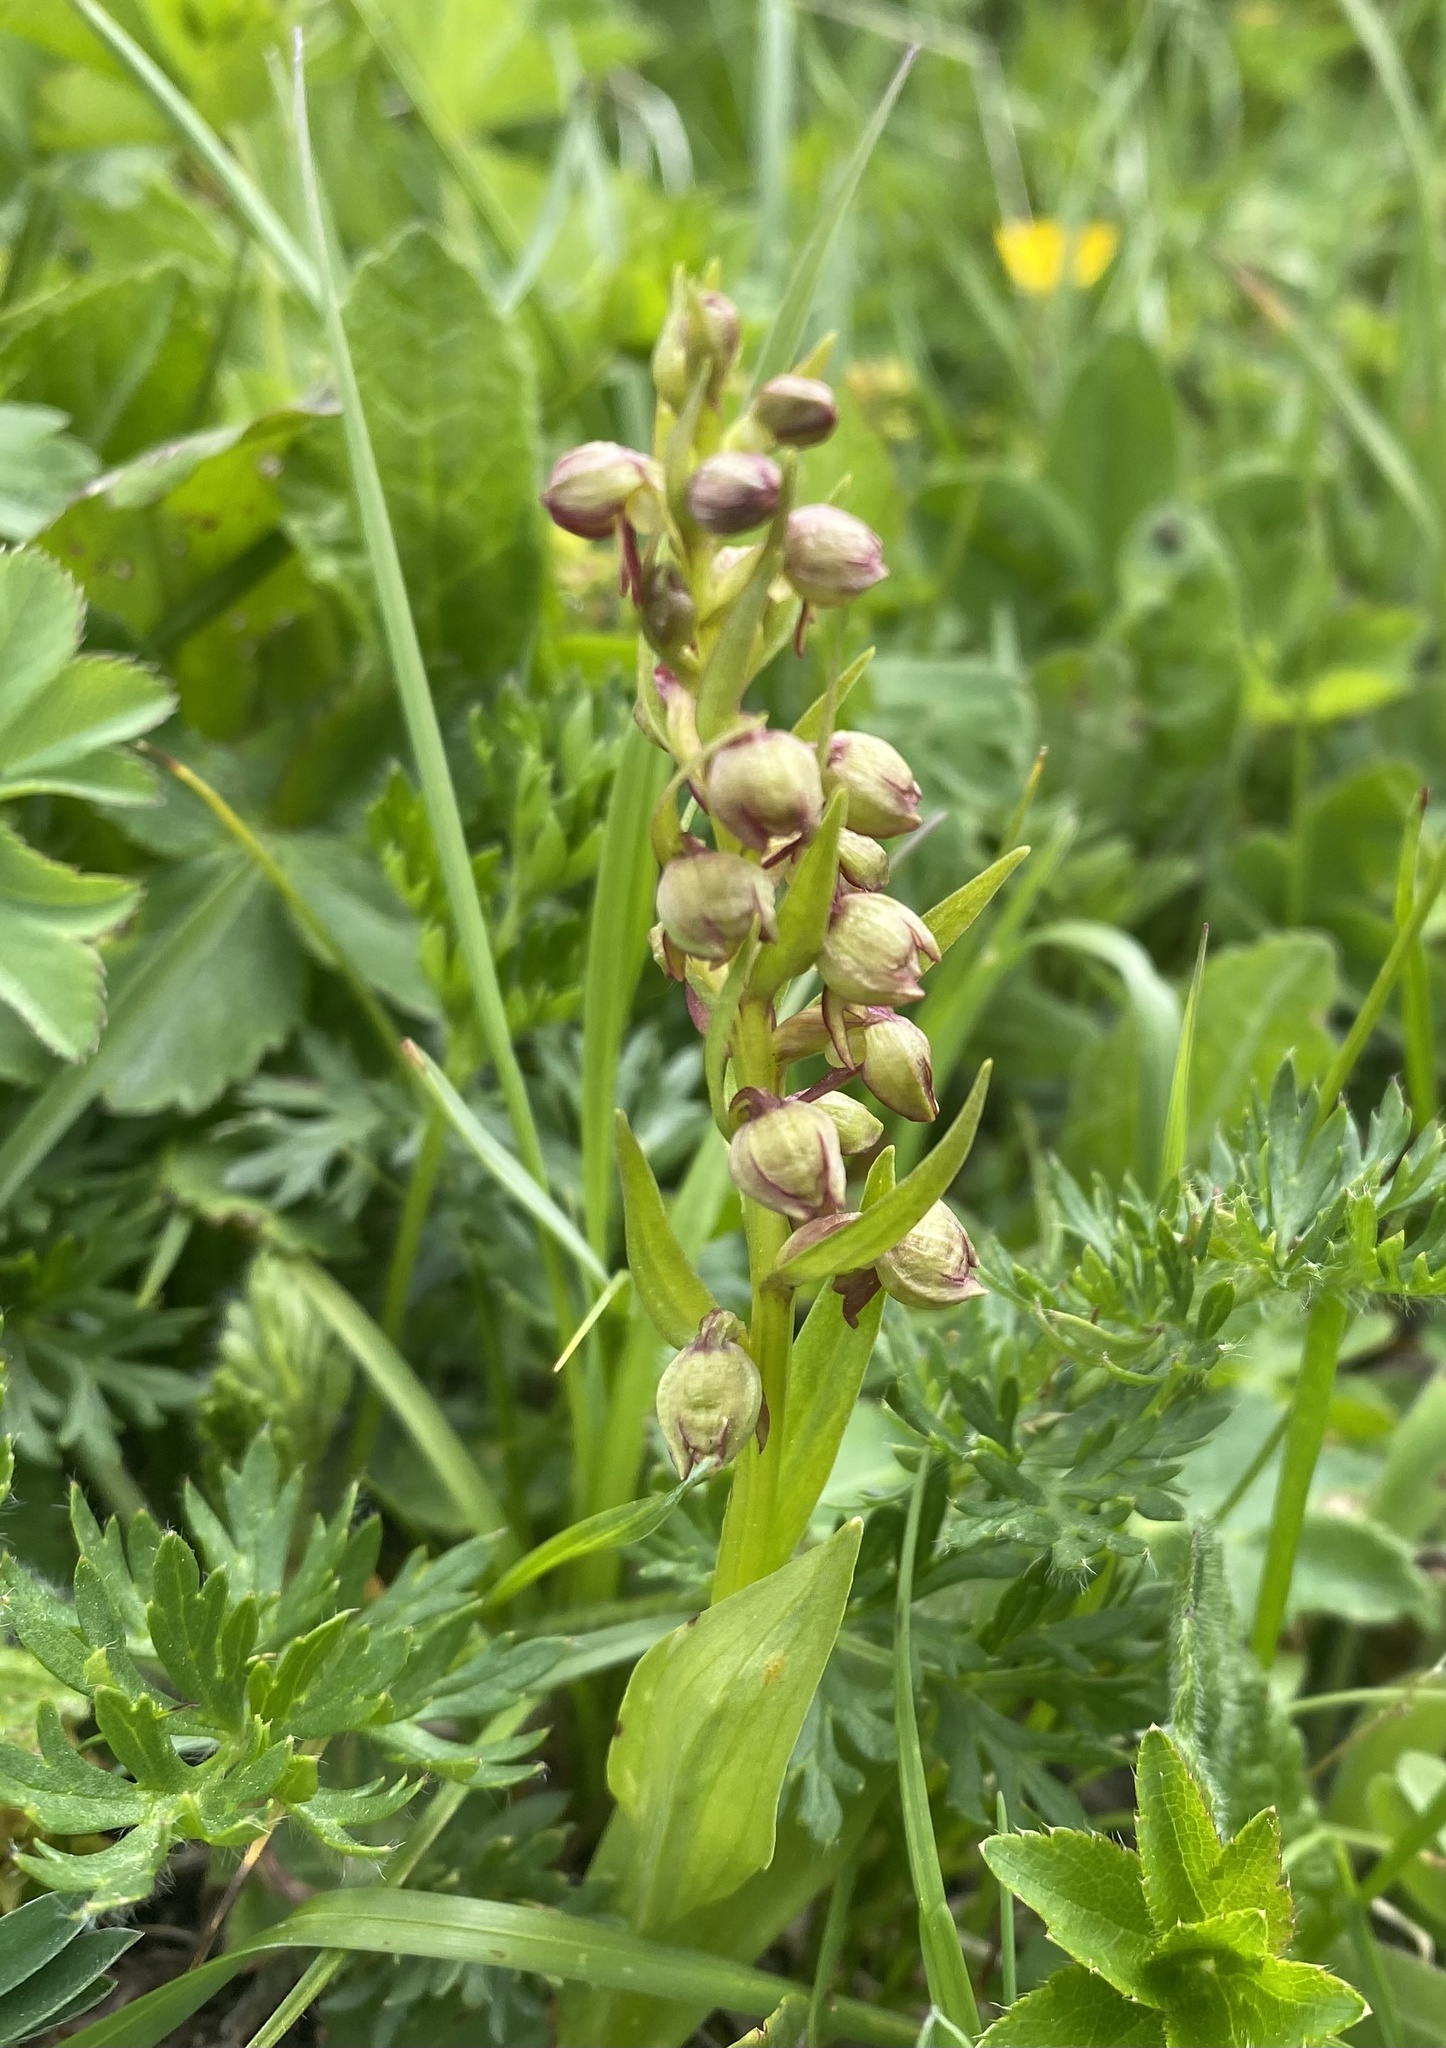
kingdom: Plantae
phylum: Tracheophyta
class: Liliopsida
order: Asparagales
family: Orchidaceae
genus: Dactylorhiza
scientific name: Dactylorhiza viridis
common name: Longbract frog orchid
